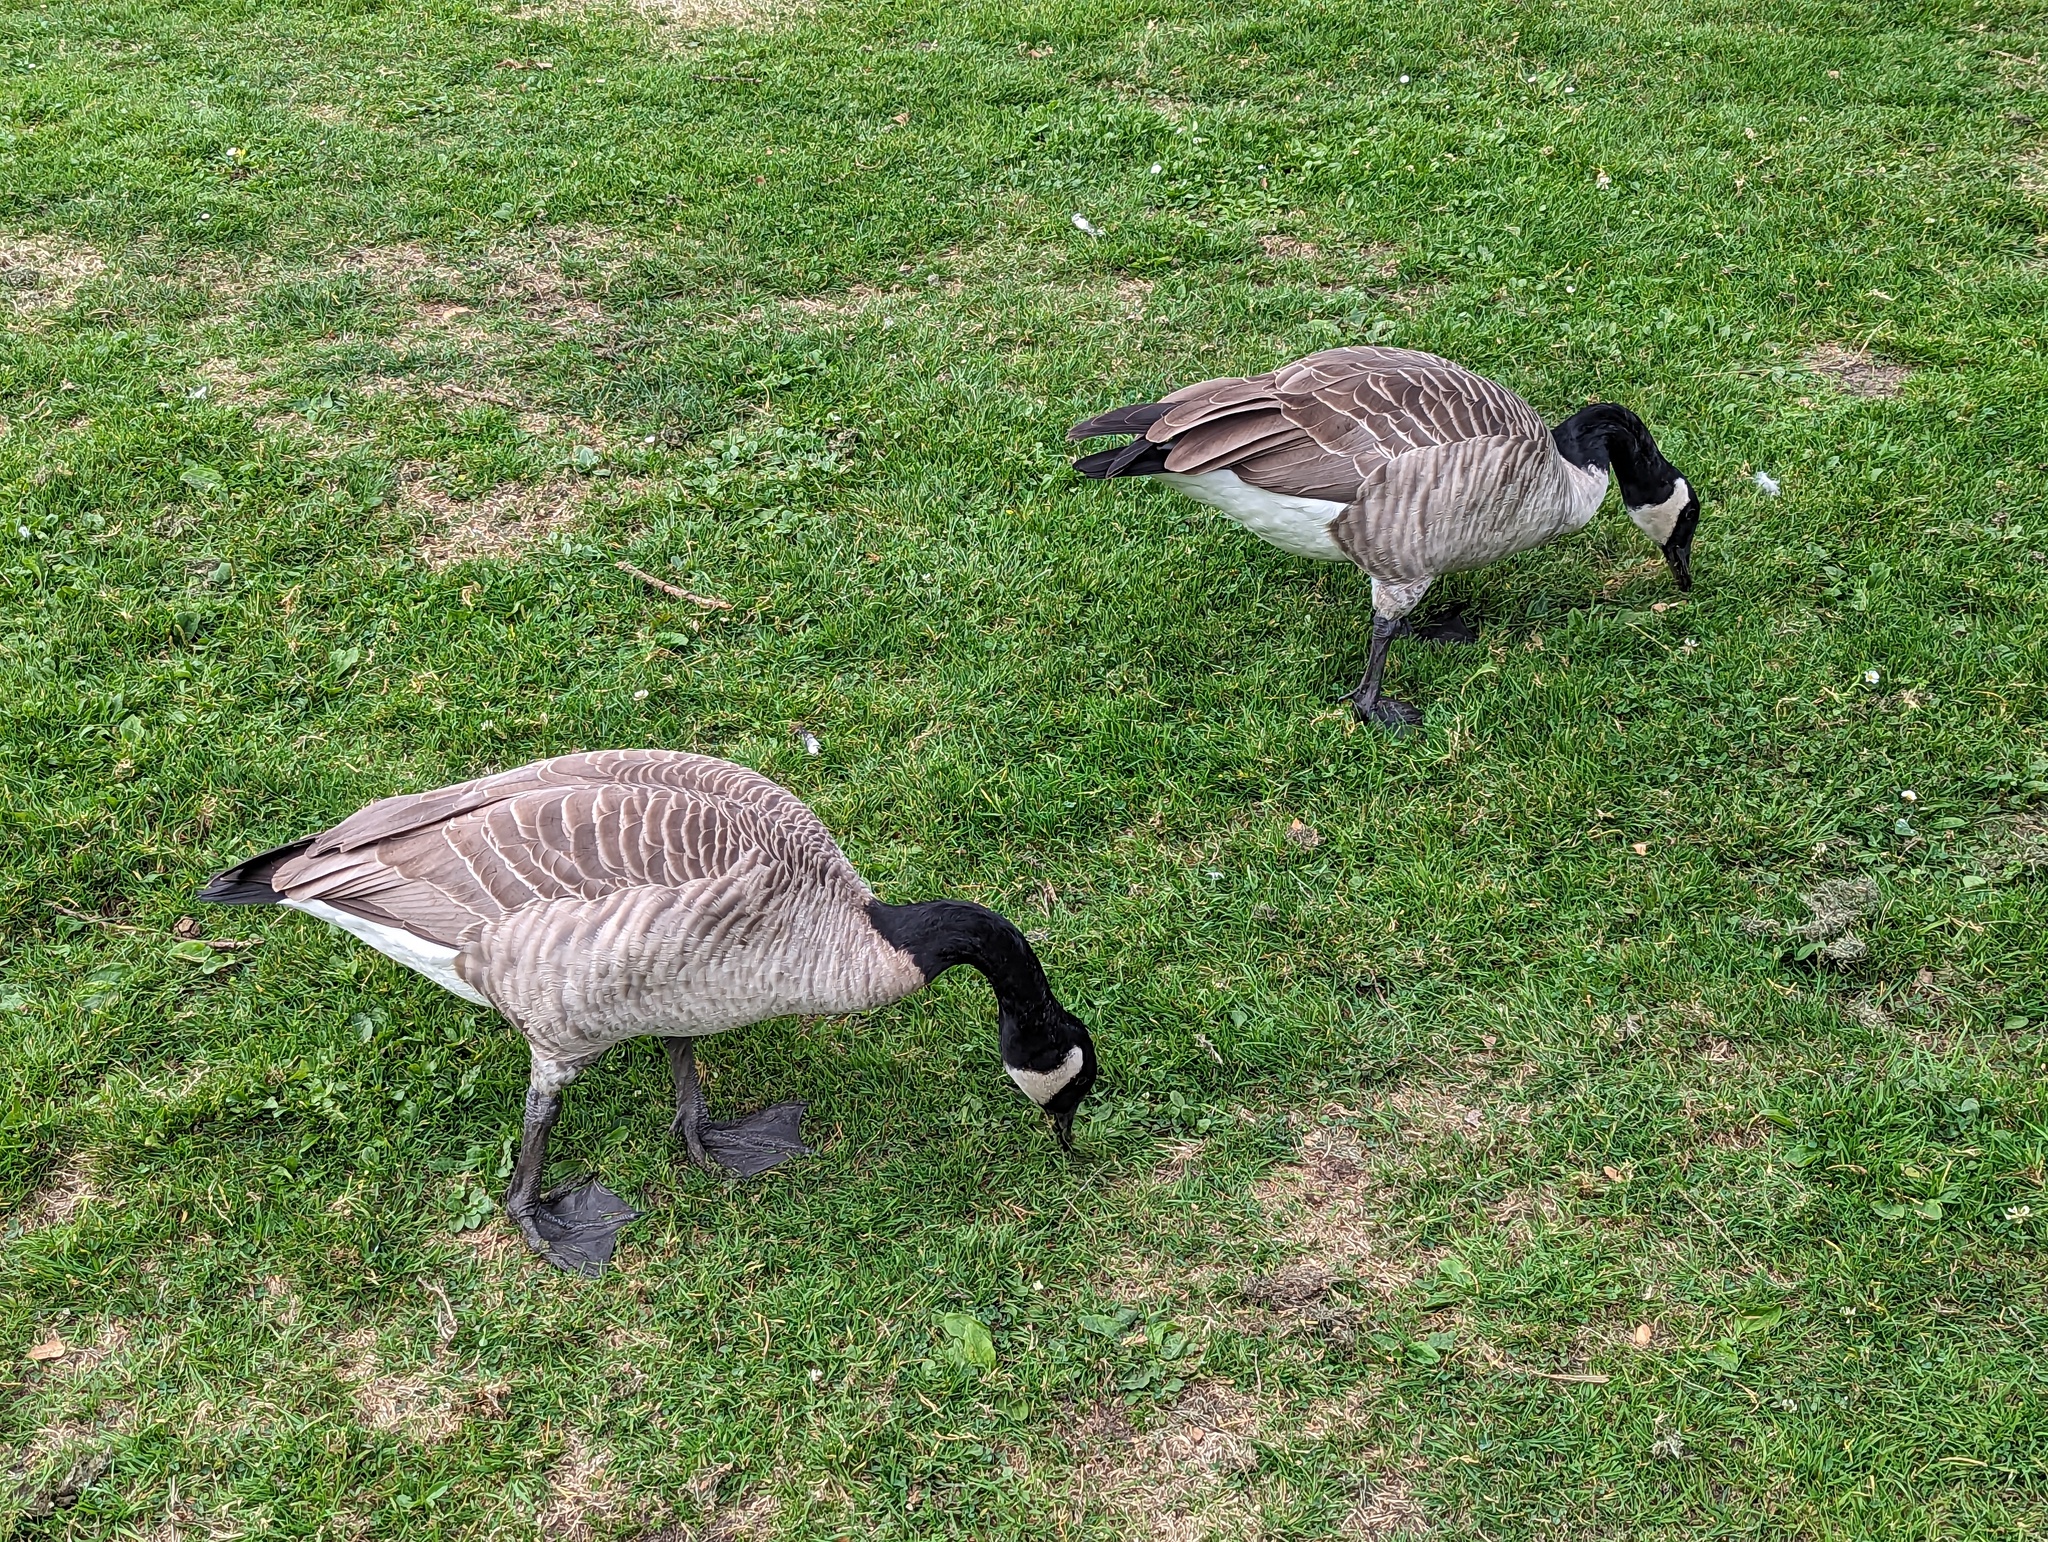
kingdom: Animalia
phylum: Chordata
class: Aves
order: Anseriformes
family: Anatidae
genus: Branta
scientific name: Branta canadensis
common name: Canada goose
